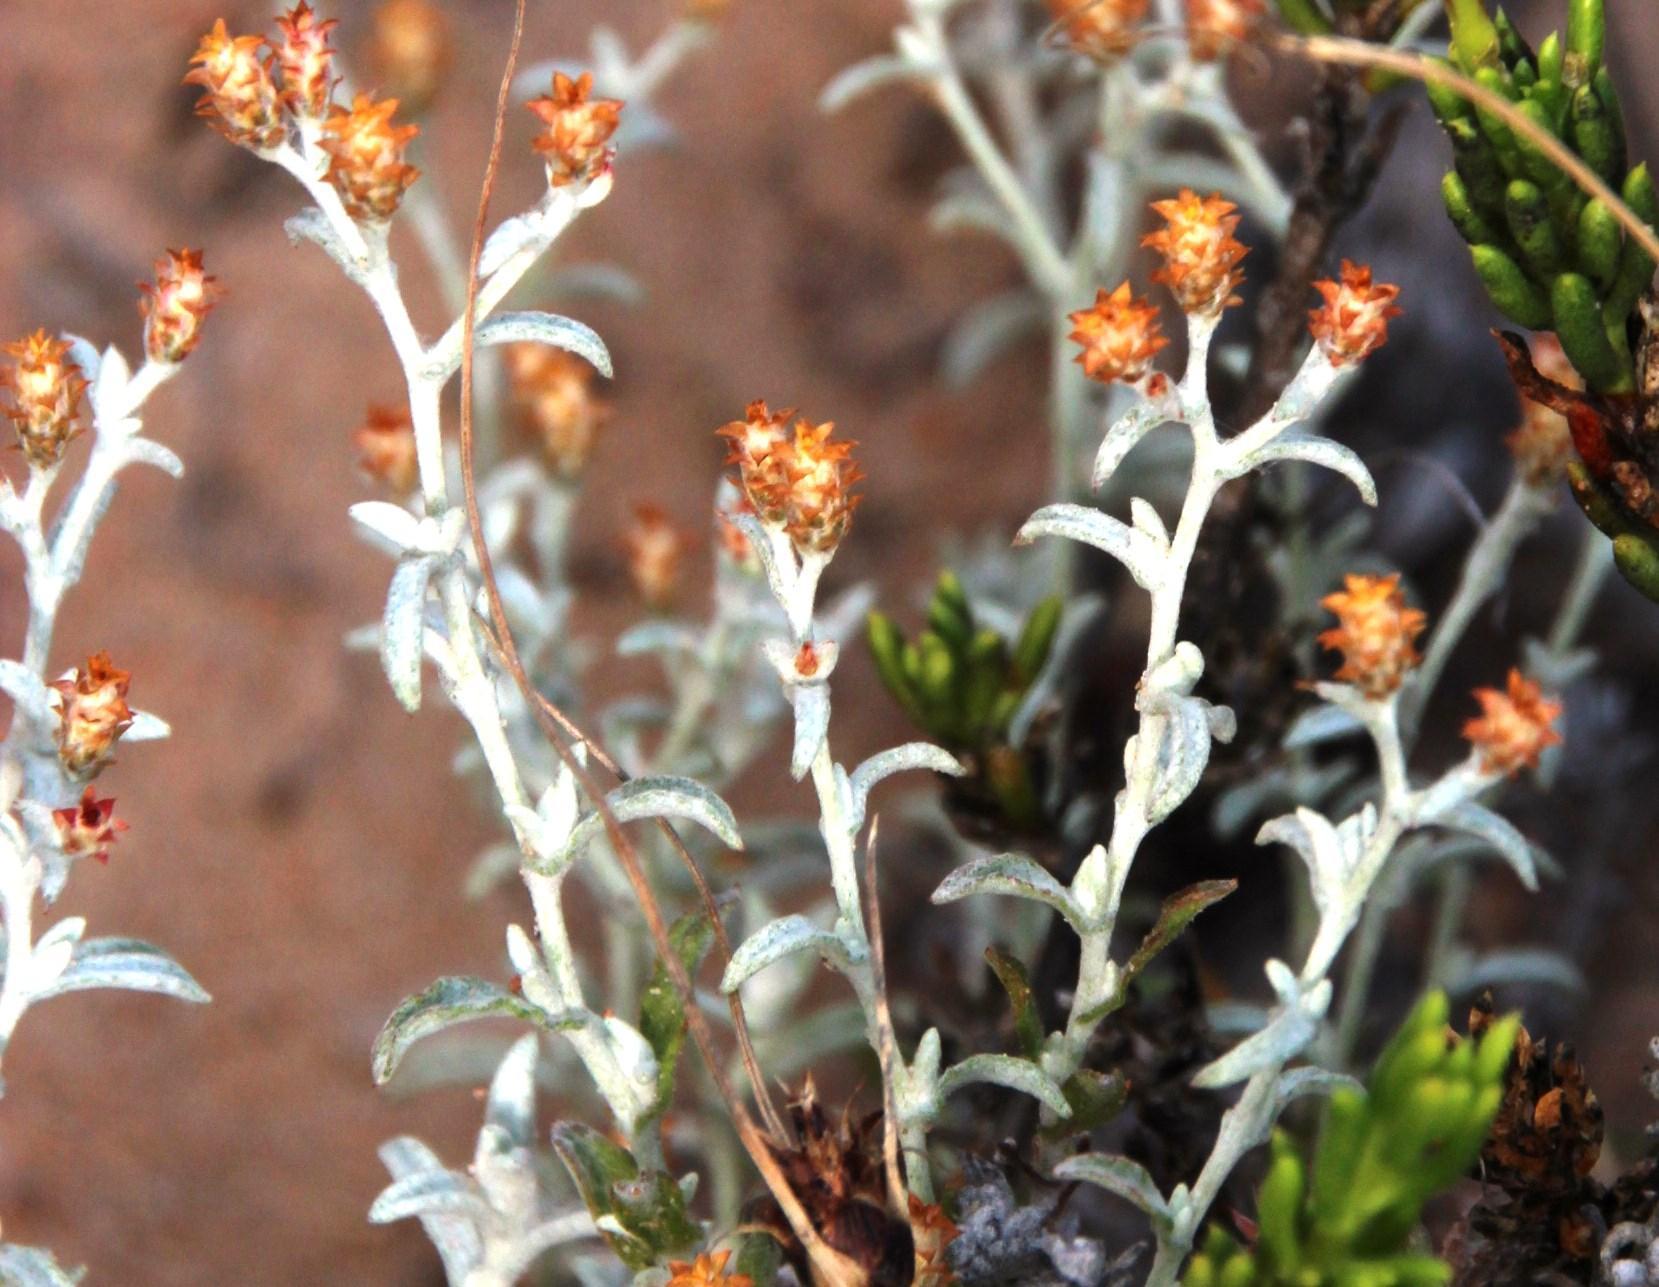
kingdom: Plantae
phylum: Tracheophyta
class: Magnoliopsida
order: Asterales
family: Asteraceae
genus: Helichrysum
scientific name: Helichrysum cylindriflorum
